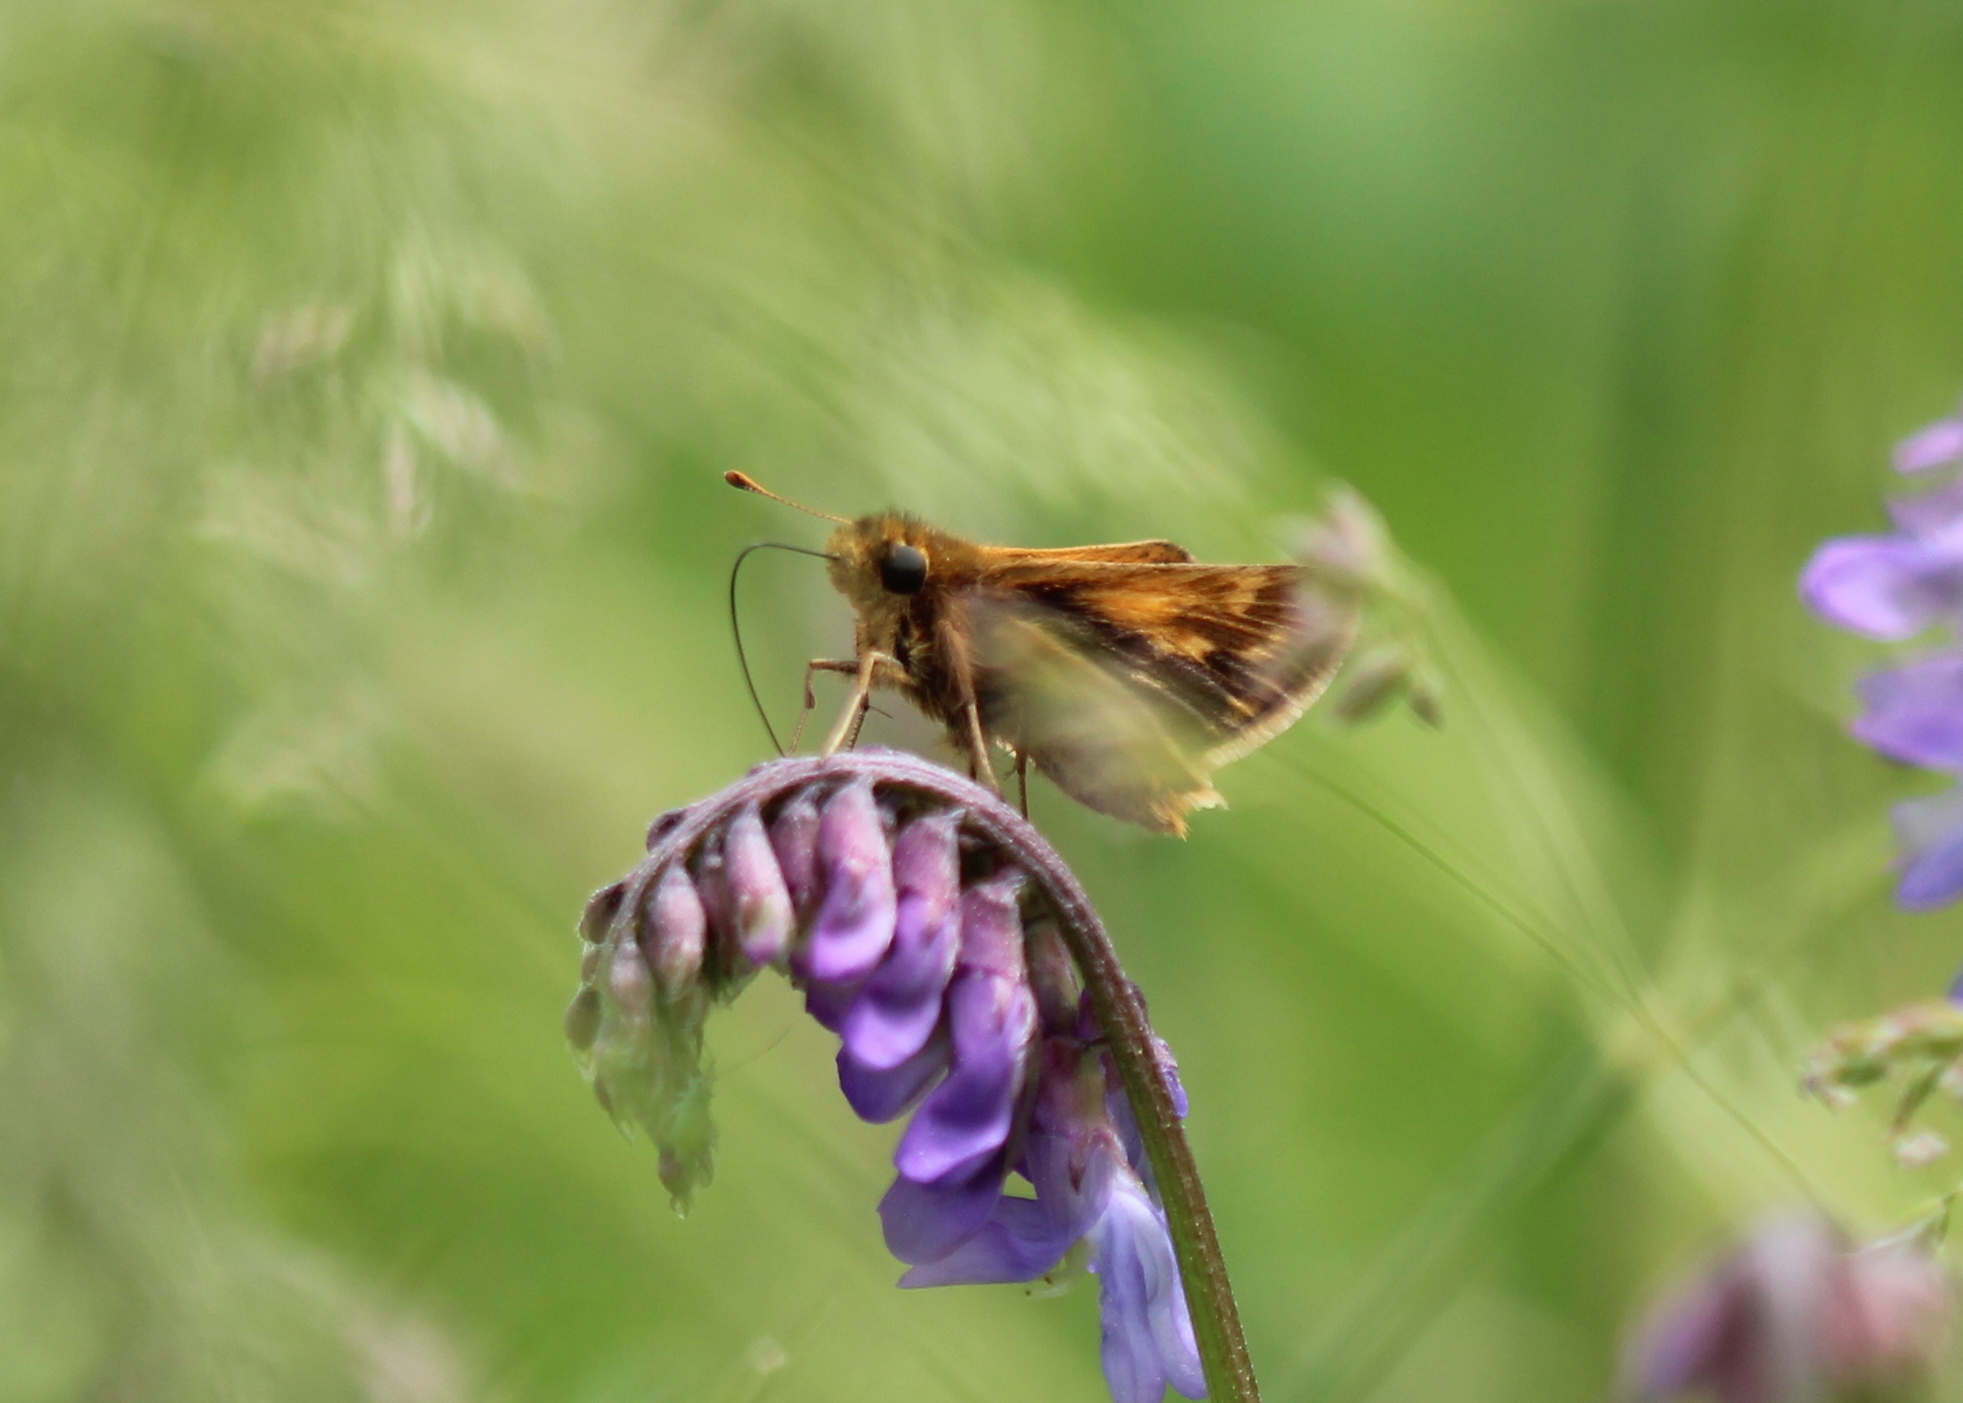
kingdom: Animalia
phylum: Arthropoda
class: Insecta
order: Lepidoptera
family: Hesperiidae
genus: Polites
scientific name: Polites coras
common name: Peck's skipper
